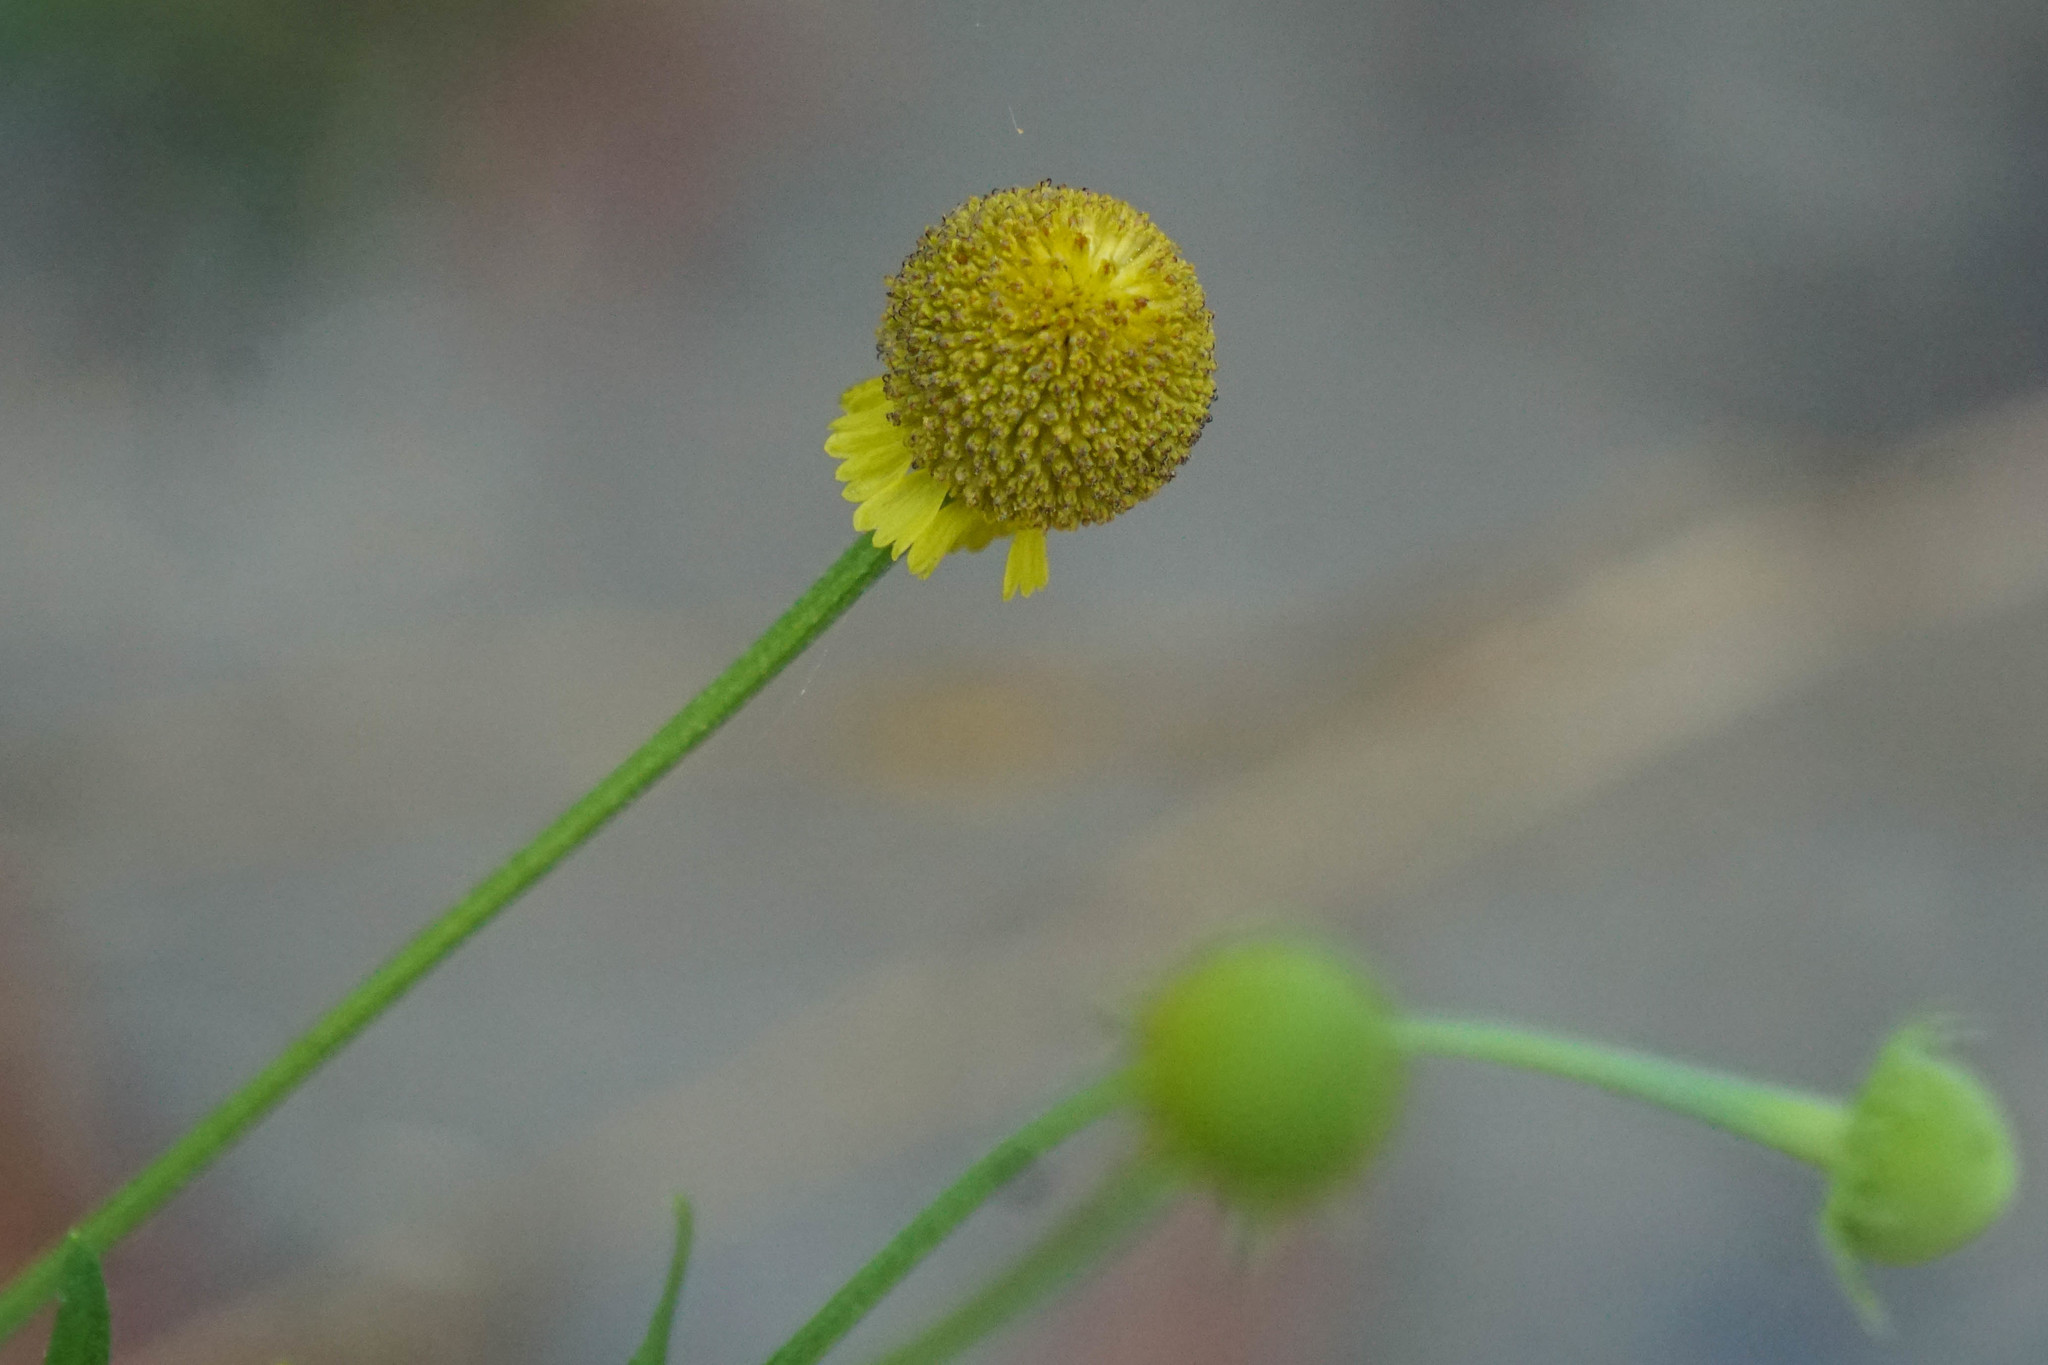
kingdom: Plantae
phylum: Tracheophyta
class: Magnoliopsida
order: Asterales
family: Asteraceae
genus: Helenium
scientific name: Helenium puberulum
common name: Sneezewort
